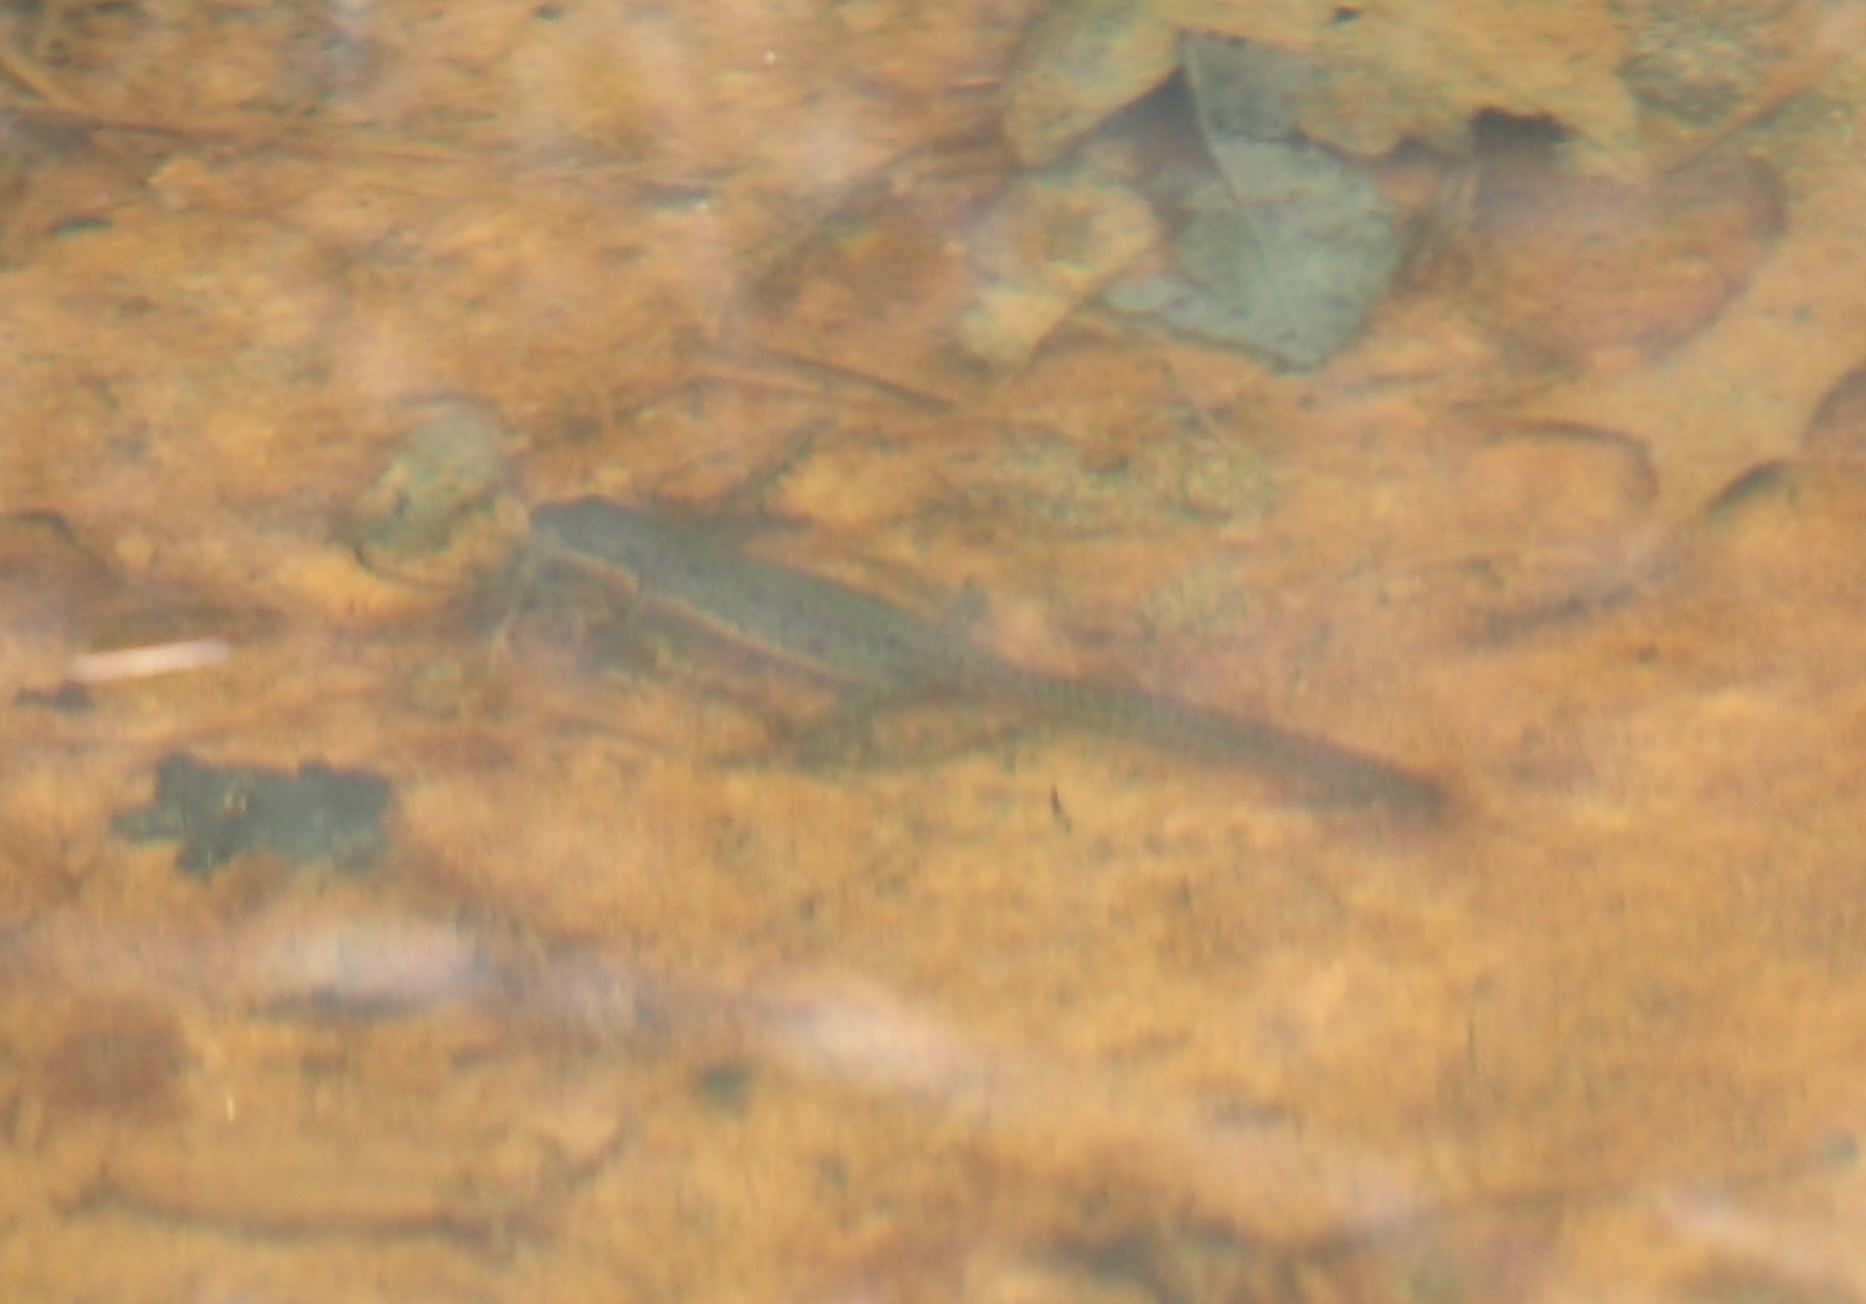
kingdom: Animalia
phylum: Chordata
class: Amphibia
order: Caudata
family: Salamandridae
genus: Notophthalmus
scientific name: Notophthalmus viridescens
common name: Eastern newt
